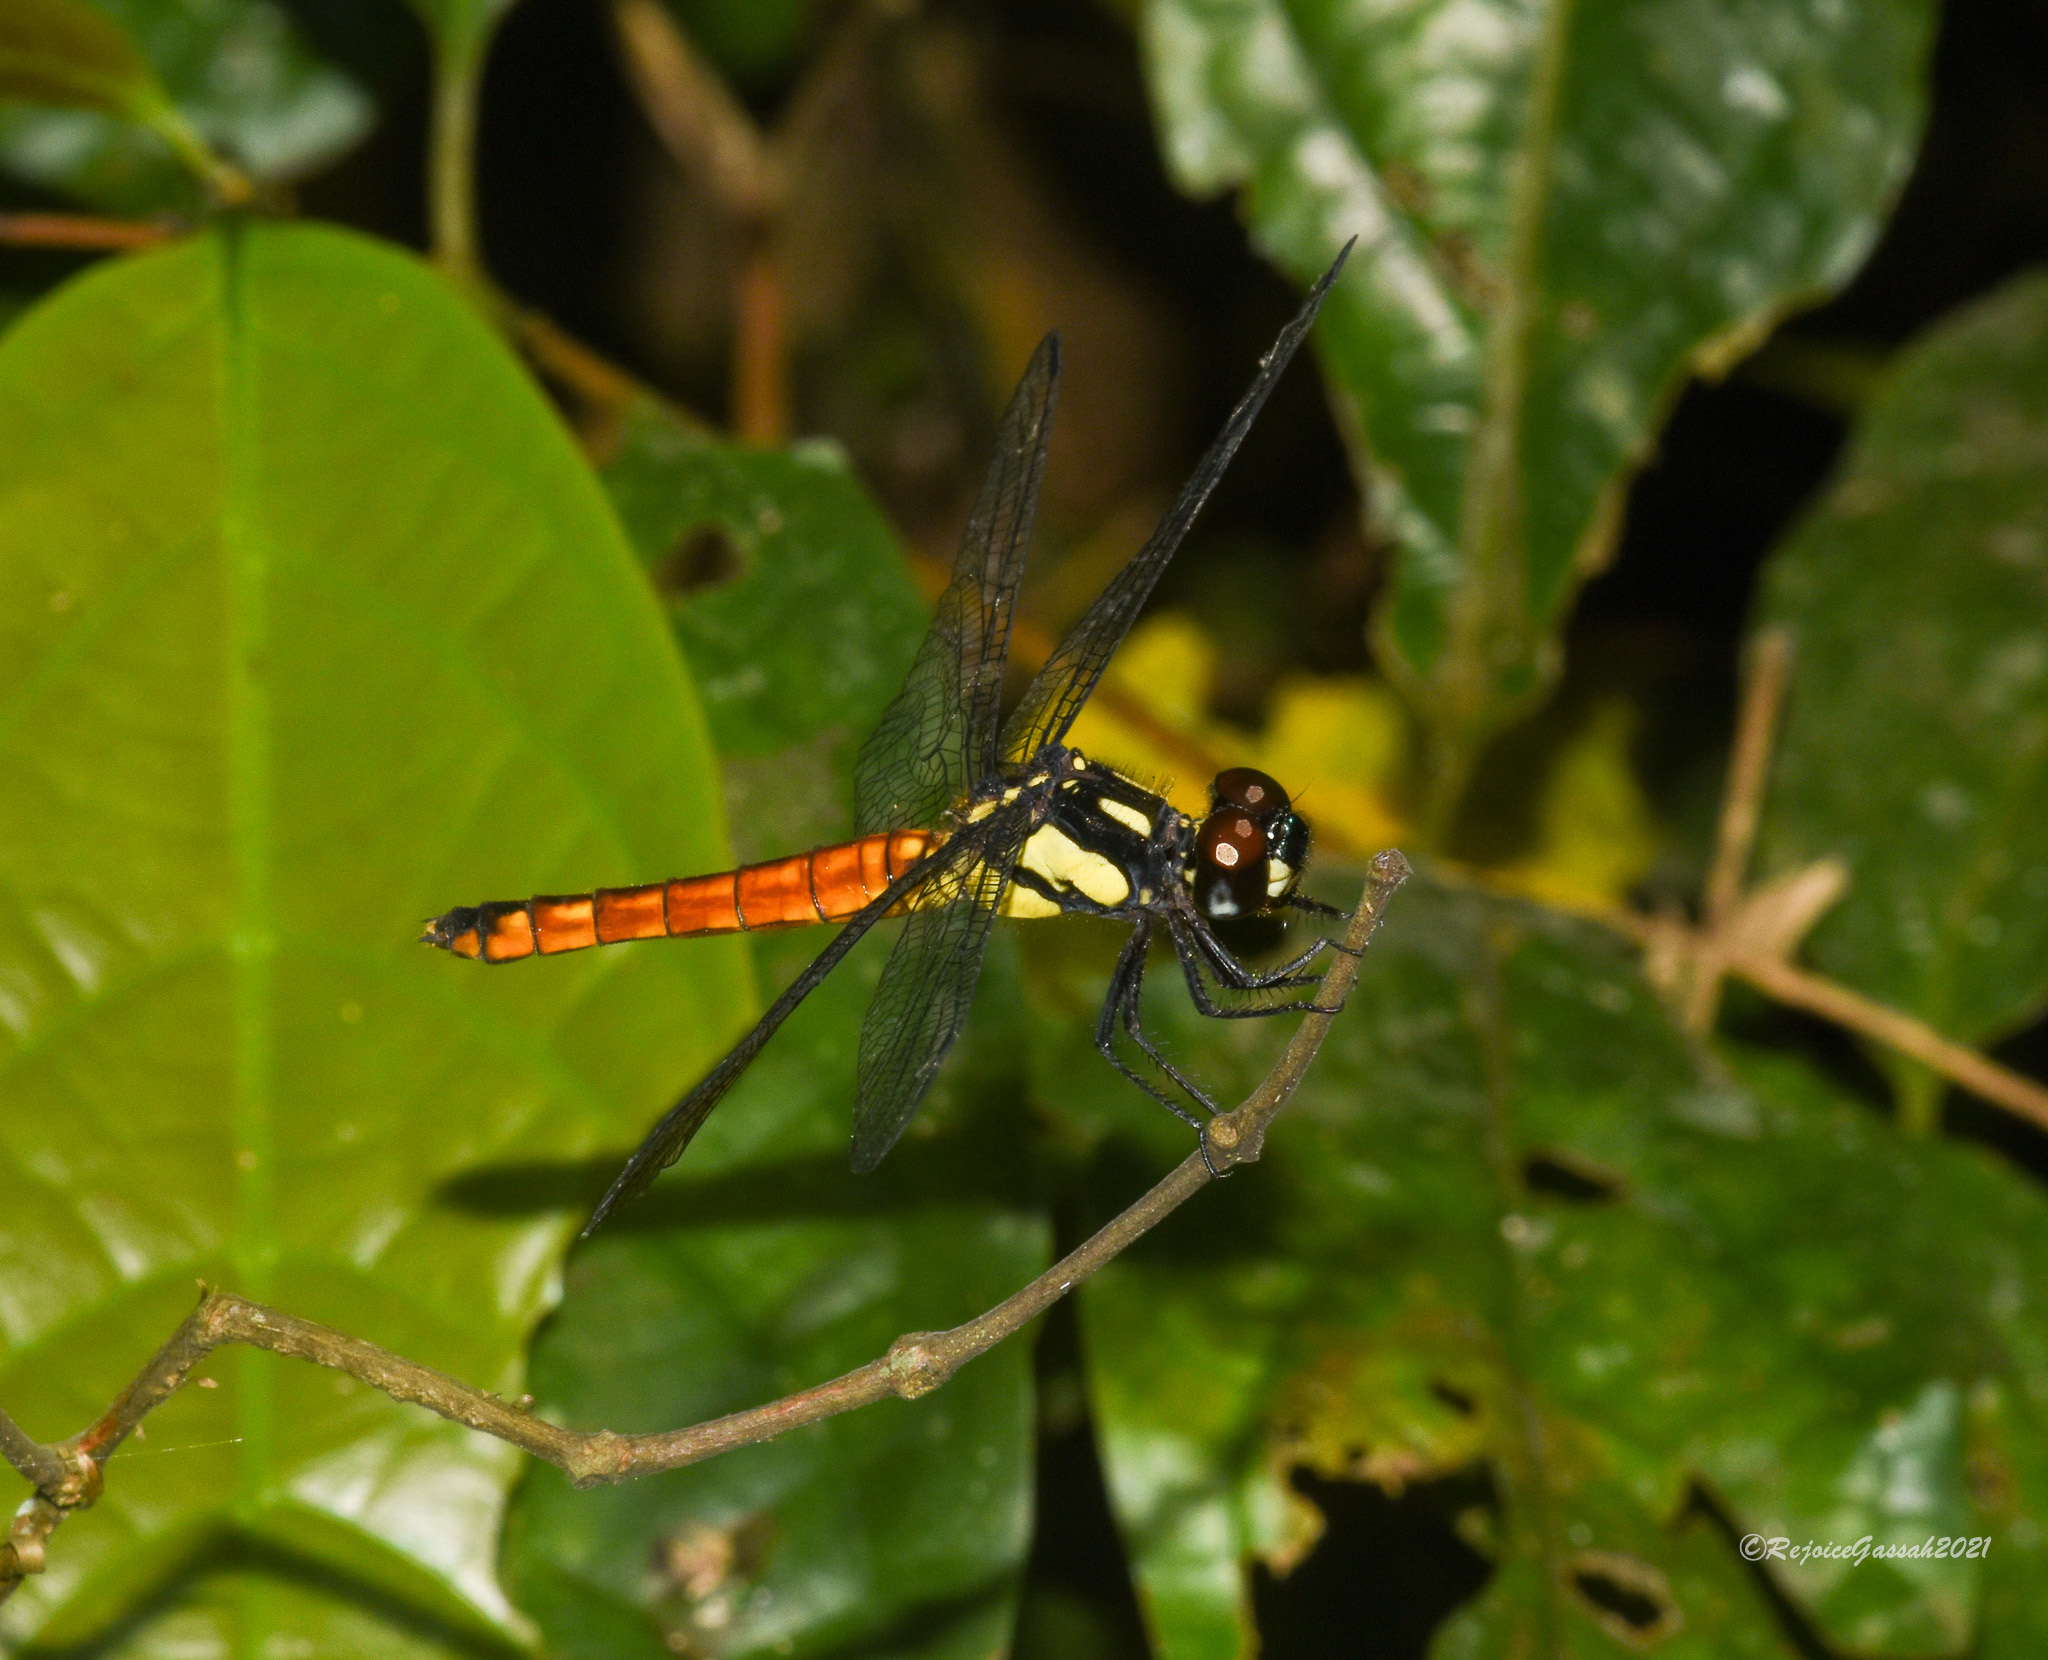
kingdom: Animalia
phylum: Arthropoda
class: Insecta
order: Odonata
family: Libellulidae
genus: Lyriothemis
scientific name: Lyriothemis tricolor
